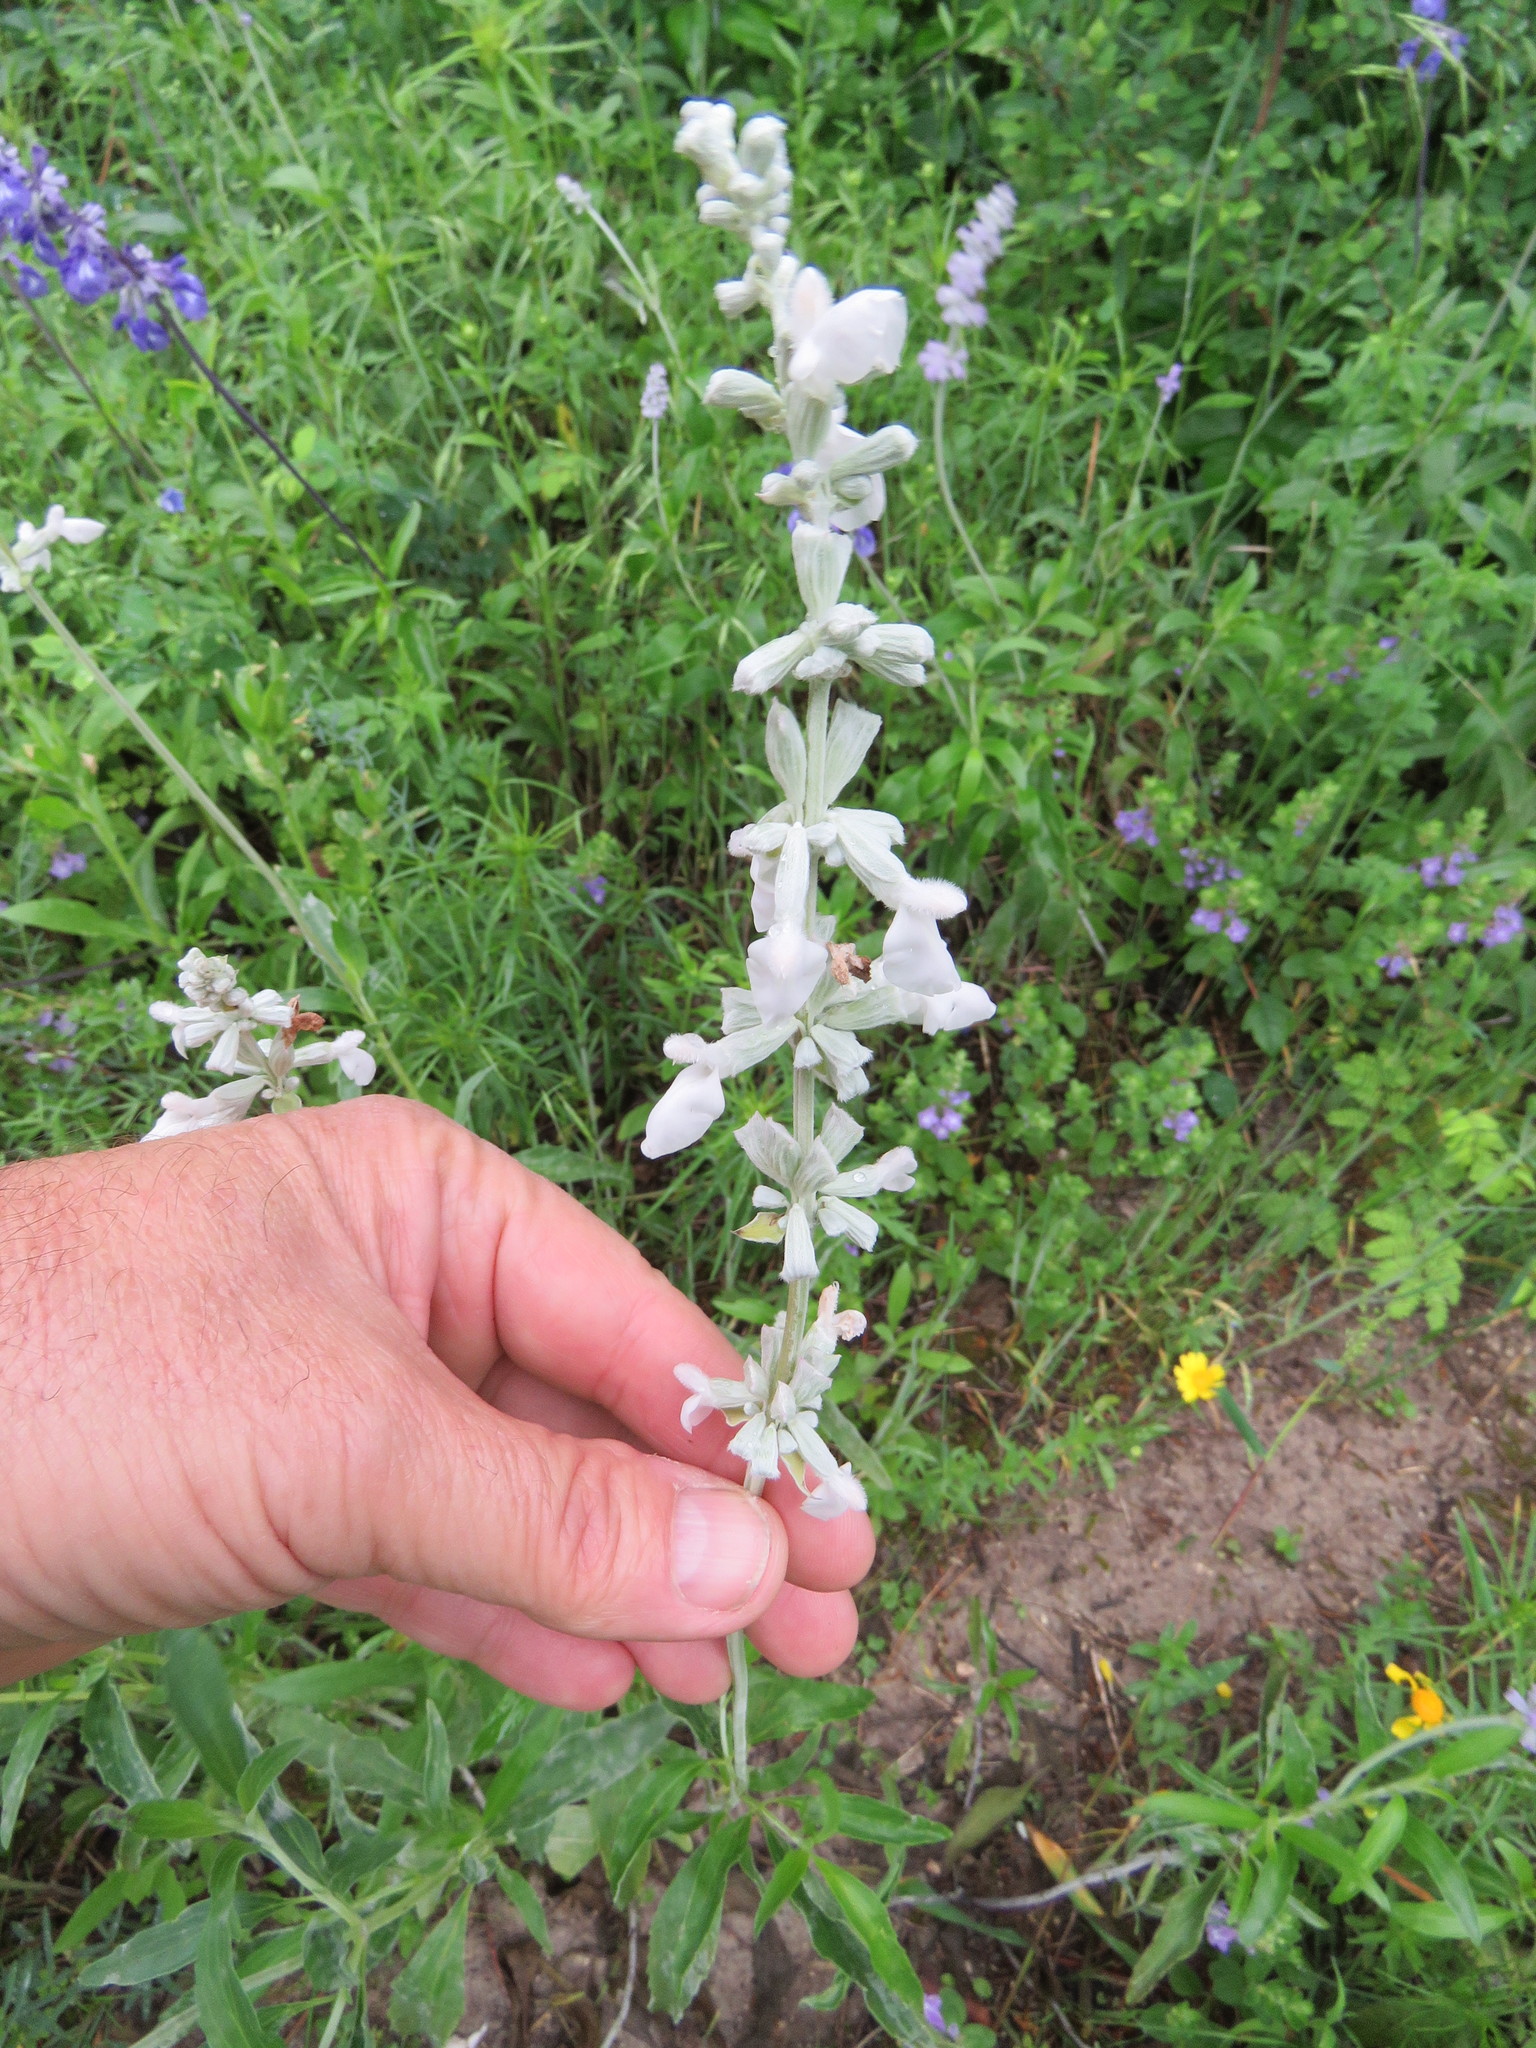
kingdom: Plantae
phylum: Tracheophyta
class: Magnoliopsida
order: Lamiales
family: Lamiaceae
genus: Salvia
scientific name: Salvia farinacea
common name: Mealy sage
